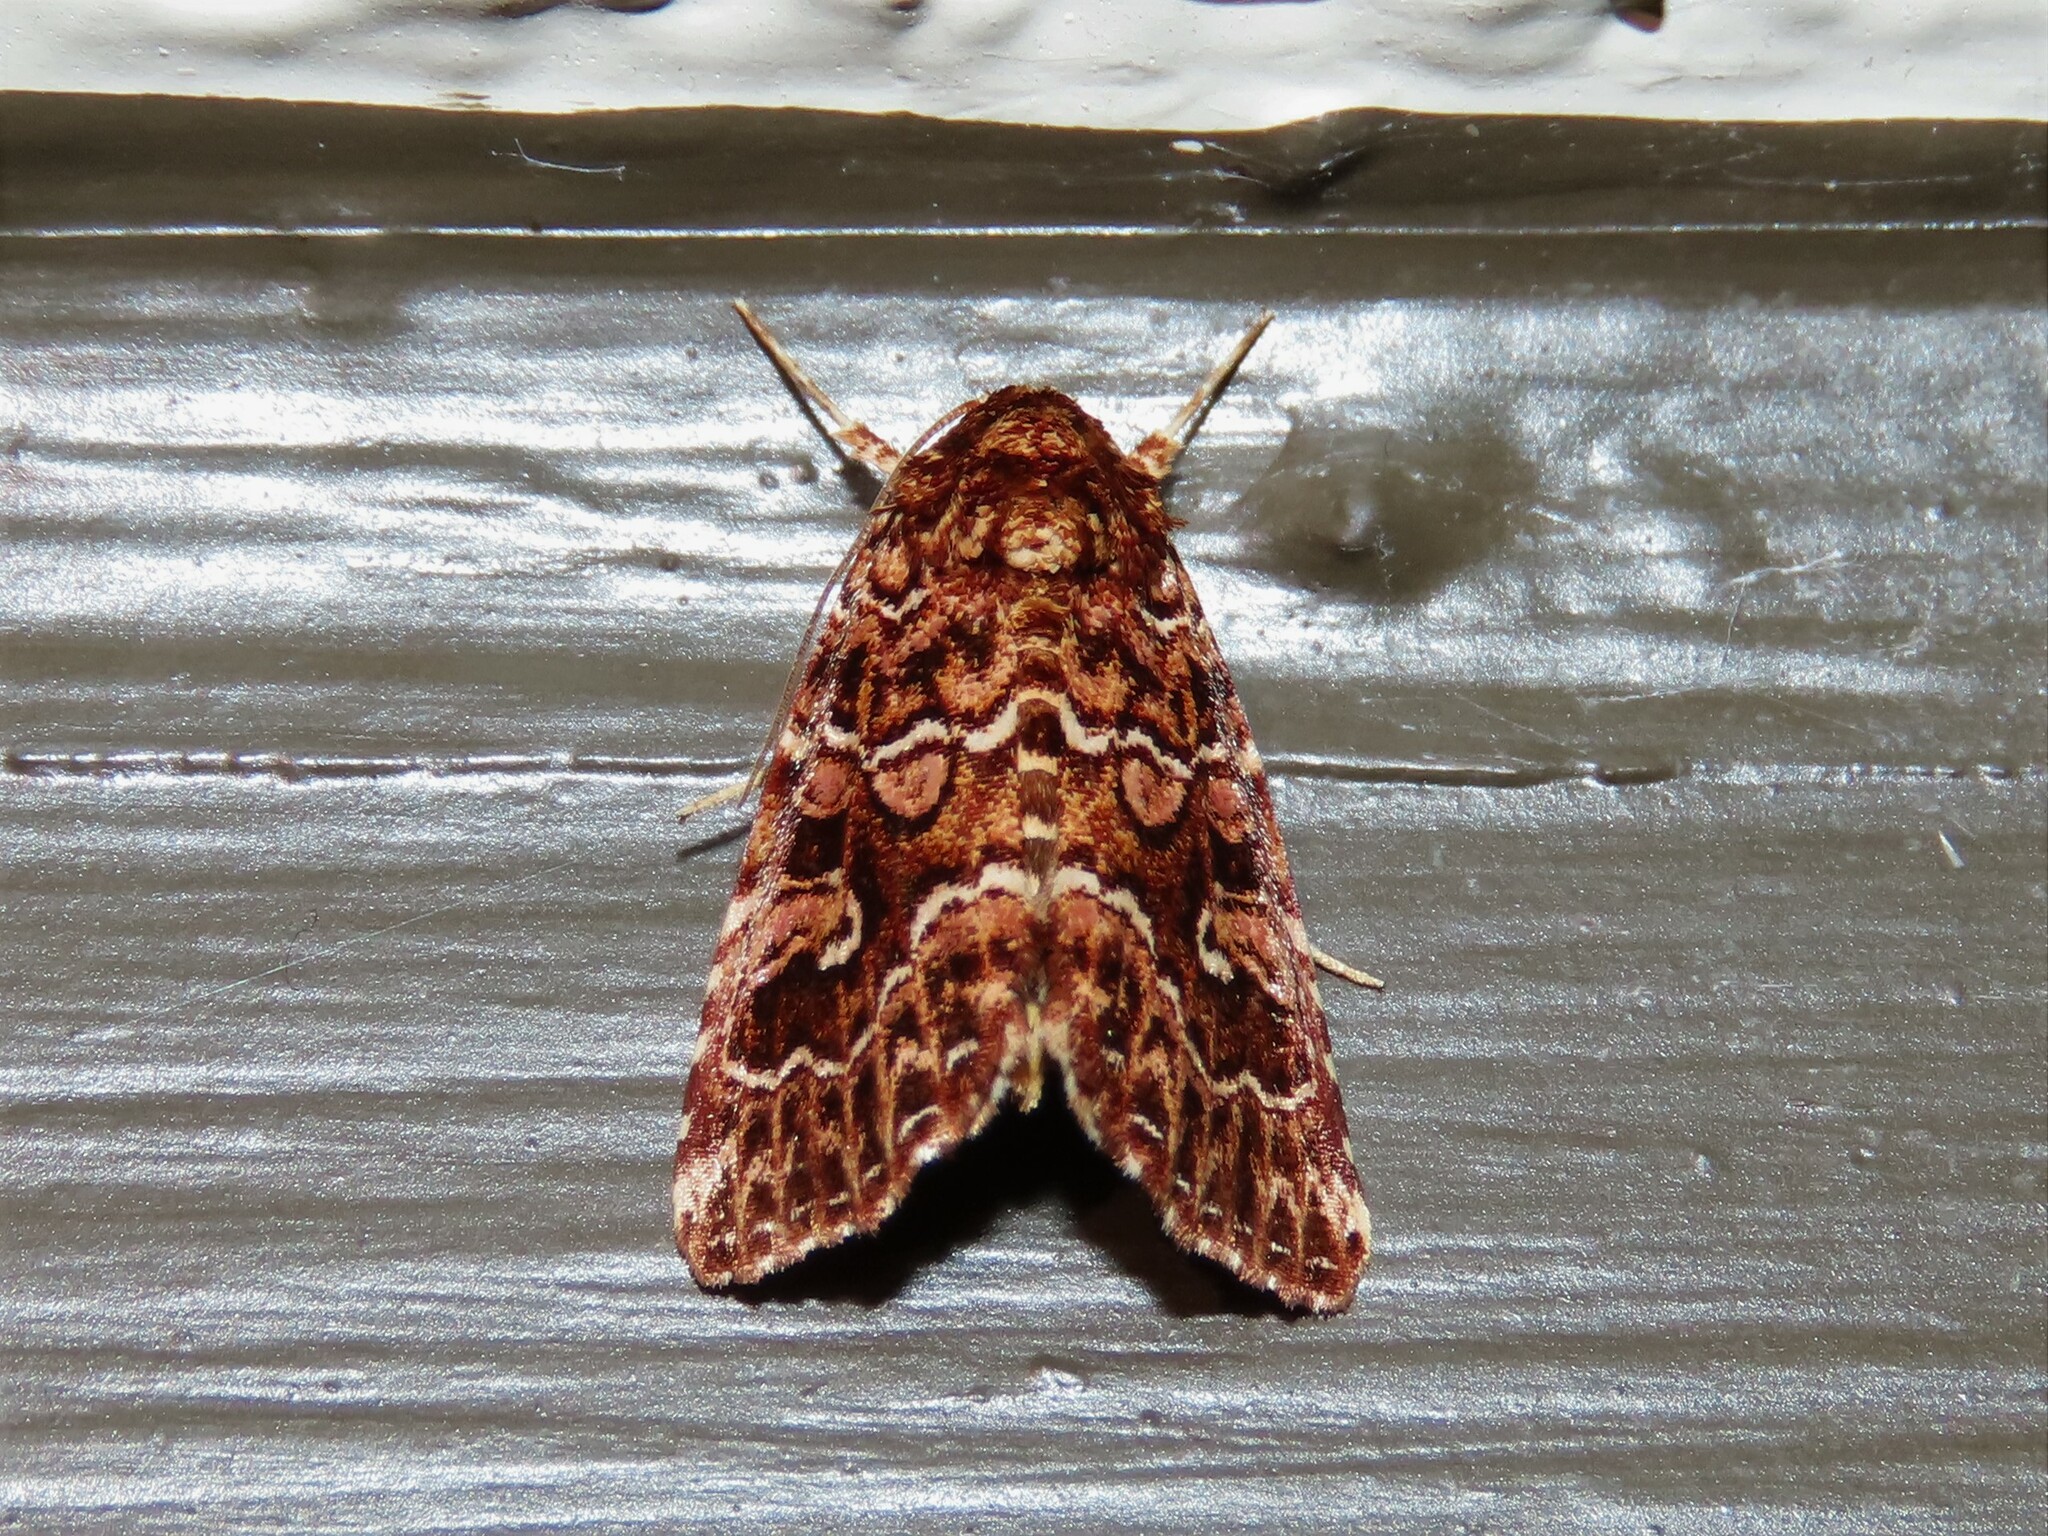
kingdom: Animalia
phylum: Arthropoda
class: Insecta
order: Lepidoptera
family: Noctuidae
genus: Callopistria
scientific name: Callopistria granitosa
